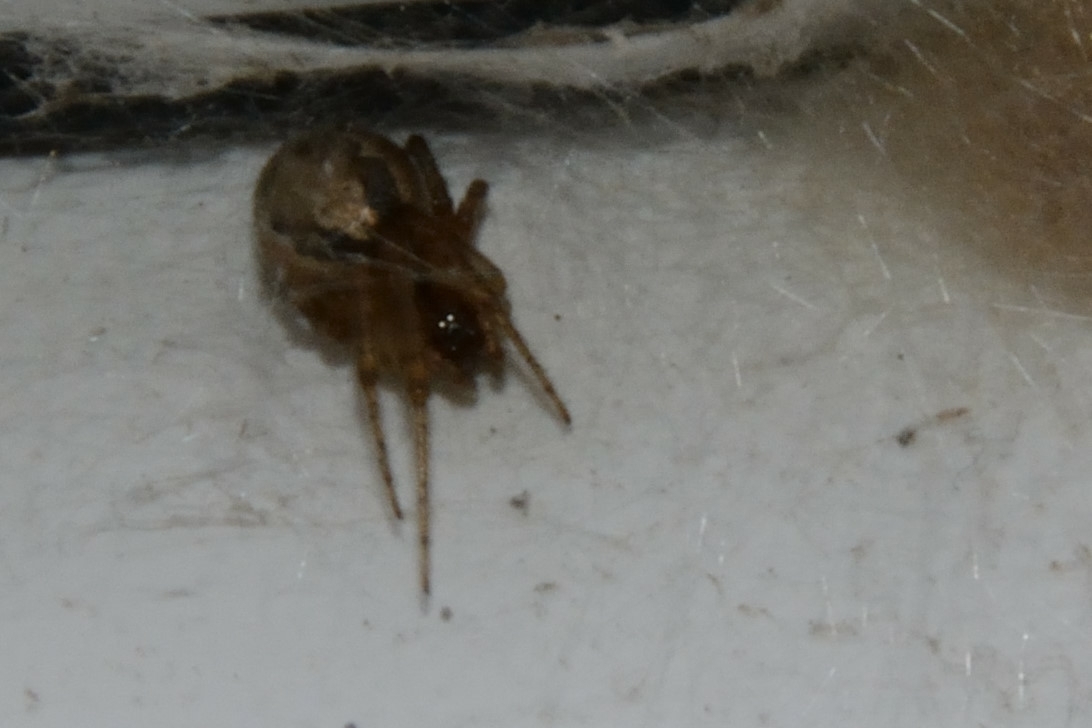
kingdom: Animalia
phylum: Arthropoda
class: Arachnida
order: Araneae
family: Araneidae
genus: Zygiella
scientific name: Zygiella x-notata
